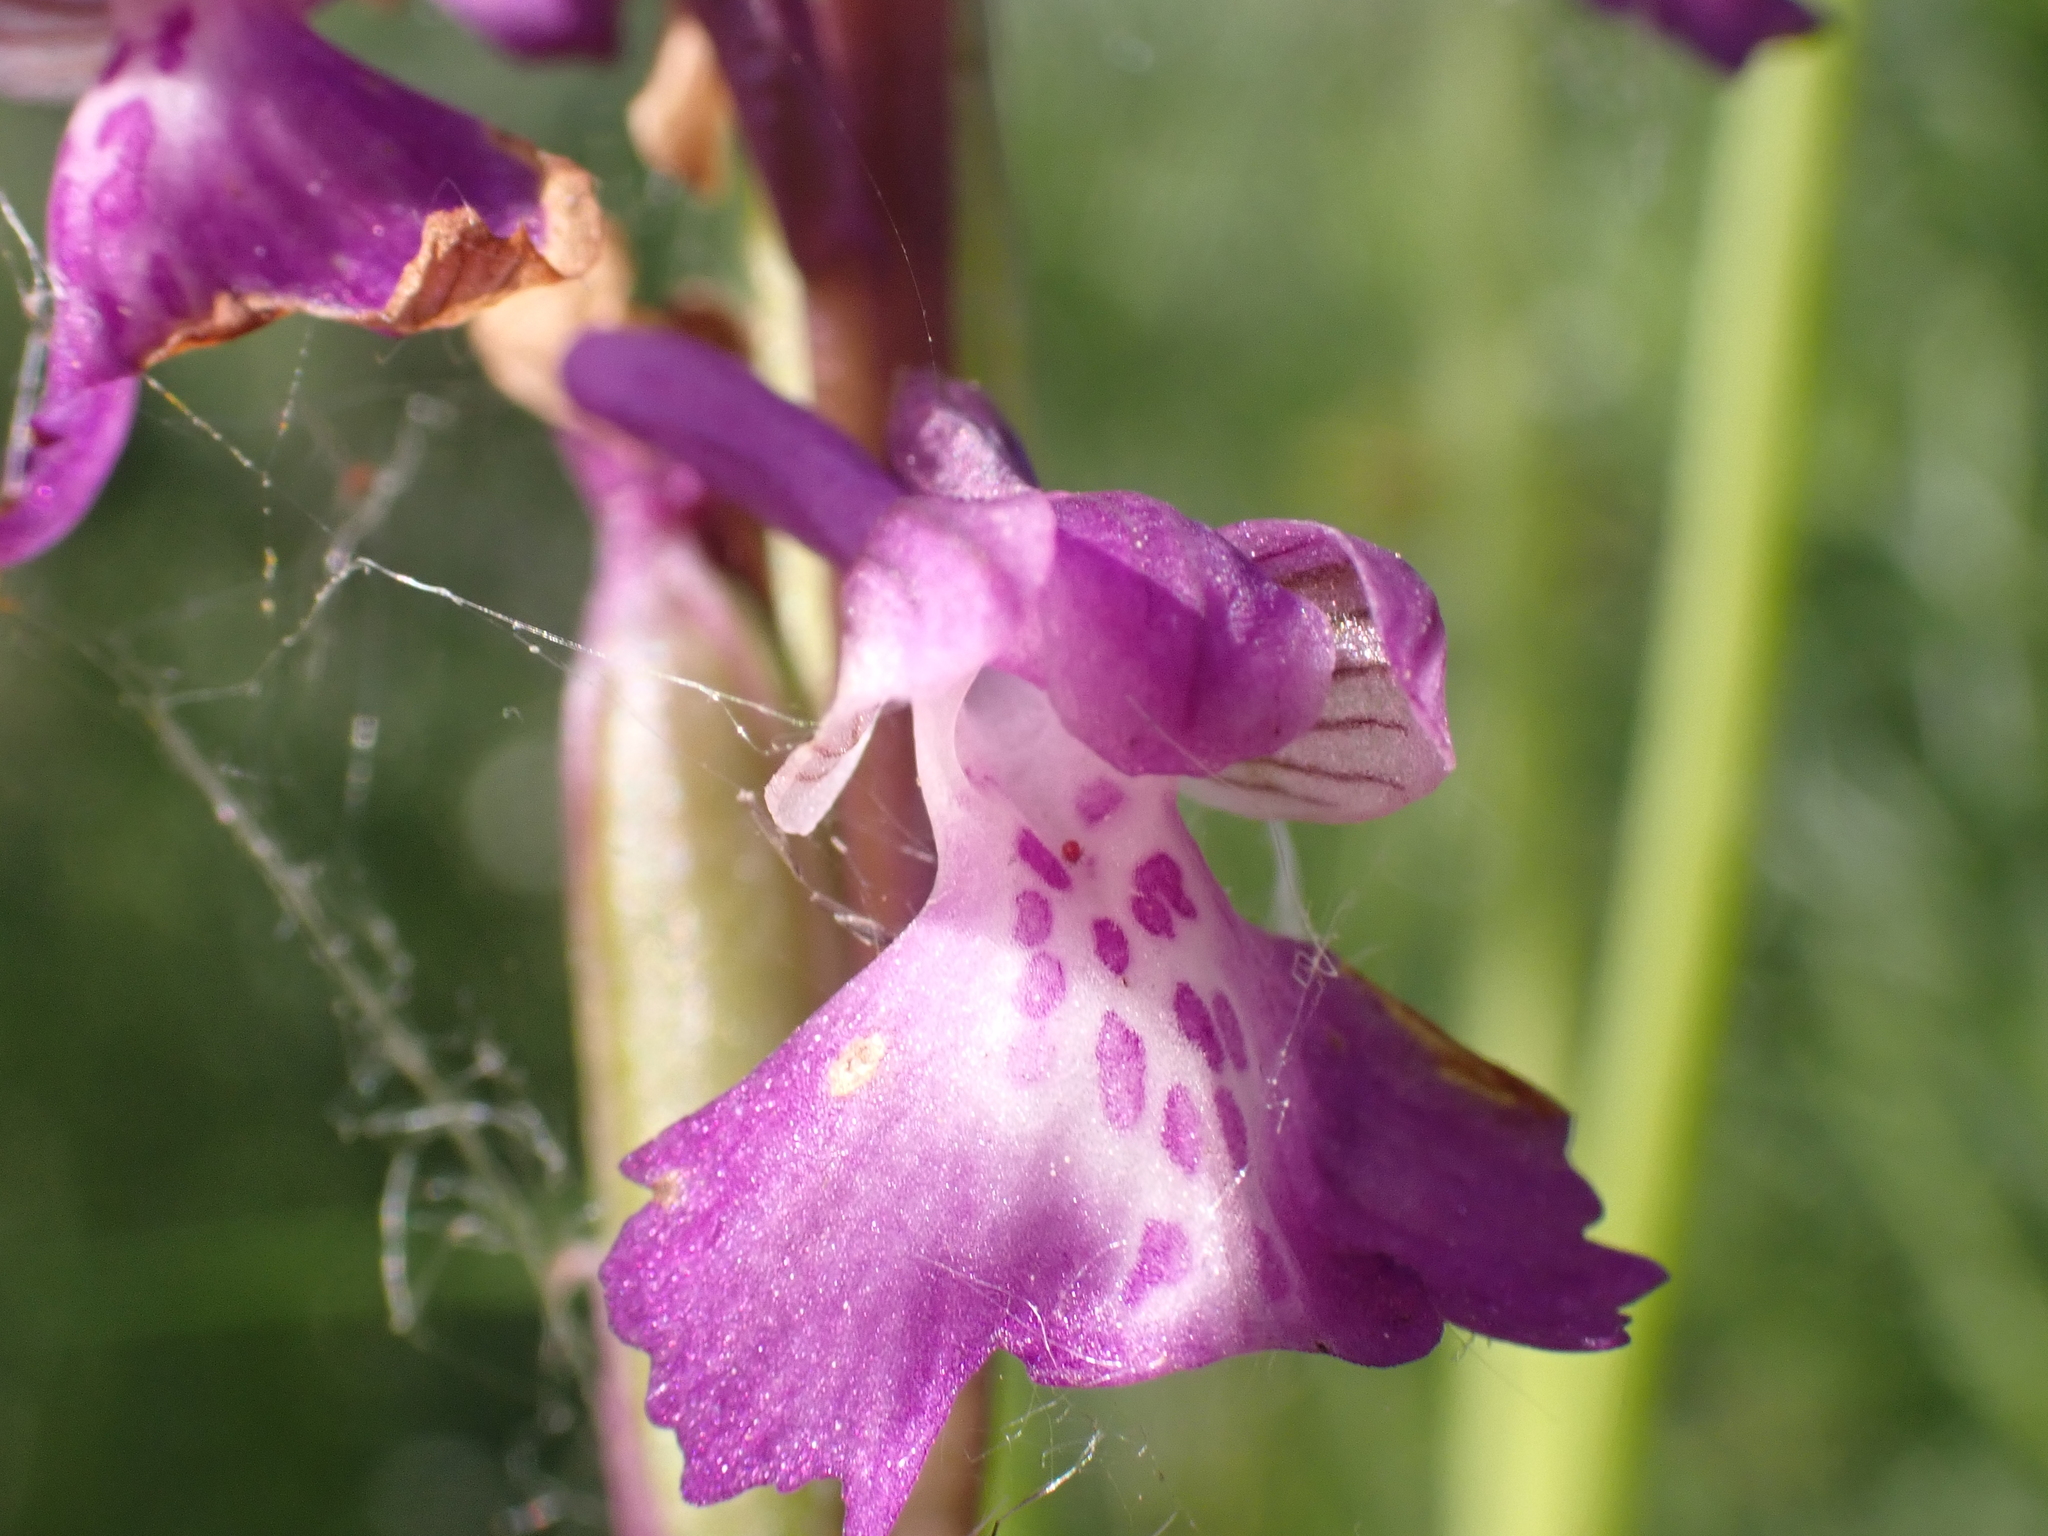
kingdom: Plantae
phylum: Tracheophyta
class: Liliopsida
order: Asparagales
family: Orchidaceae
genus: Anacamptis
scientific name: Anacamptis morio
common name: Green-winged orchid
